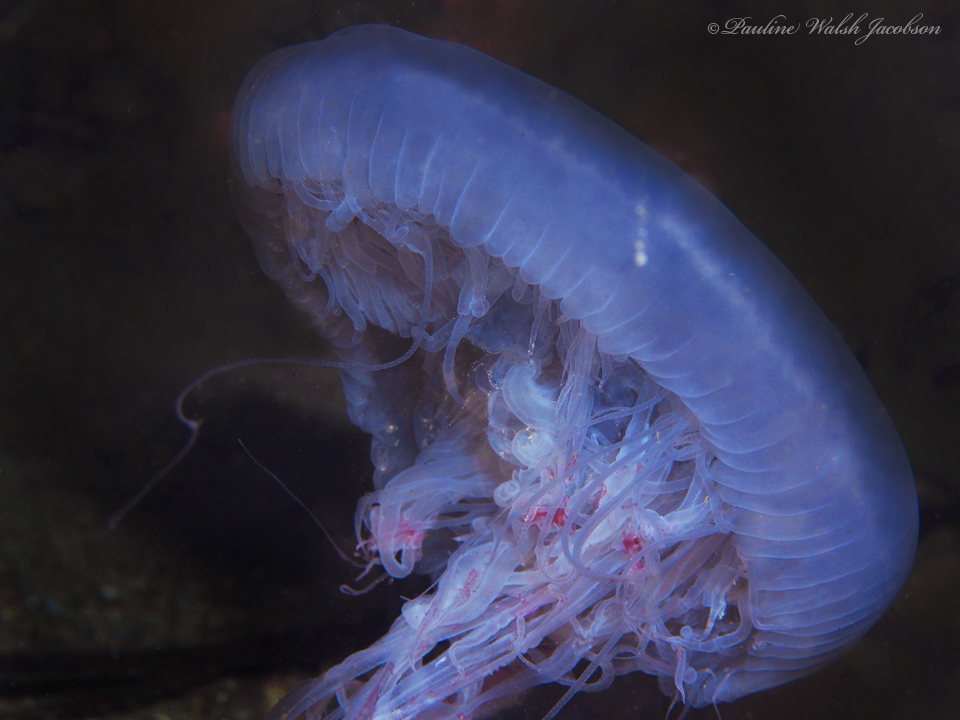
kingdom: Animalia
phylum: Cnidaria
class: Scyphozoa
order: Semaeostomeae
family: Drymonematidae
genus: Drymonema
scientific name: Drymonema larsoni
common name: Larson's jellyfish
